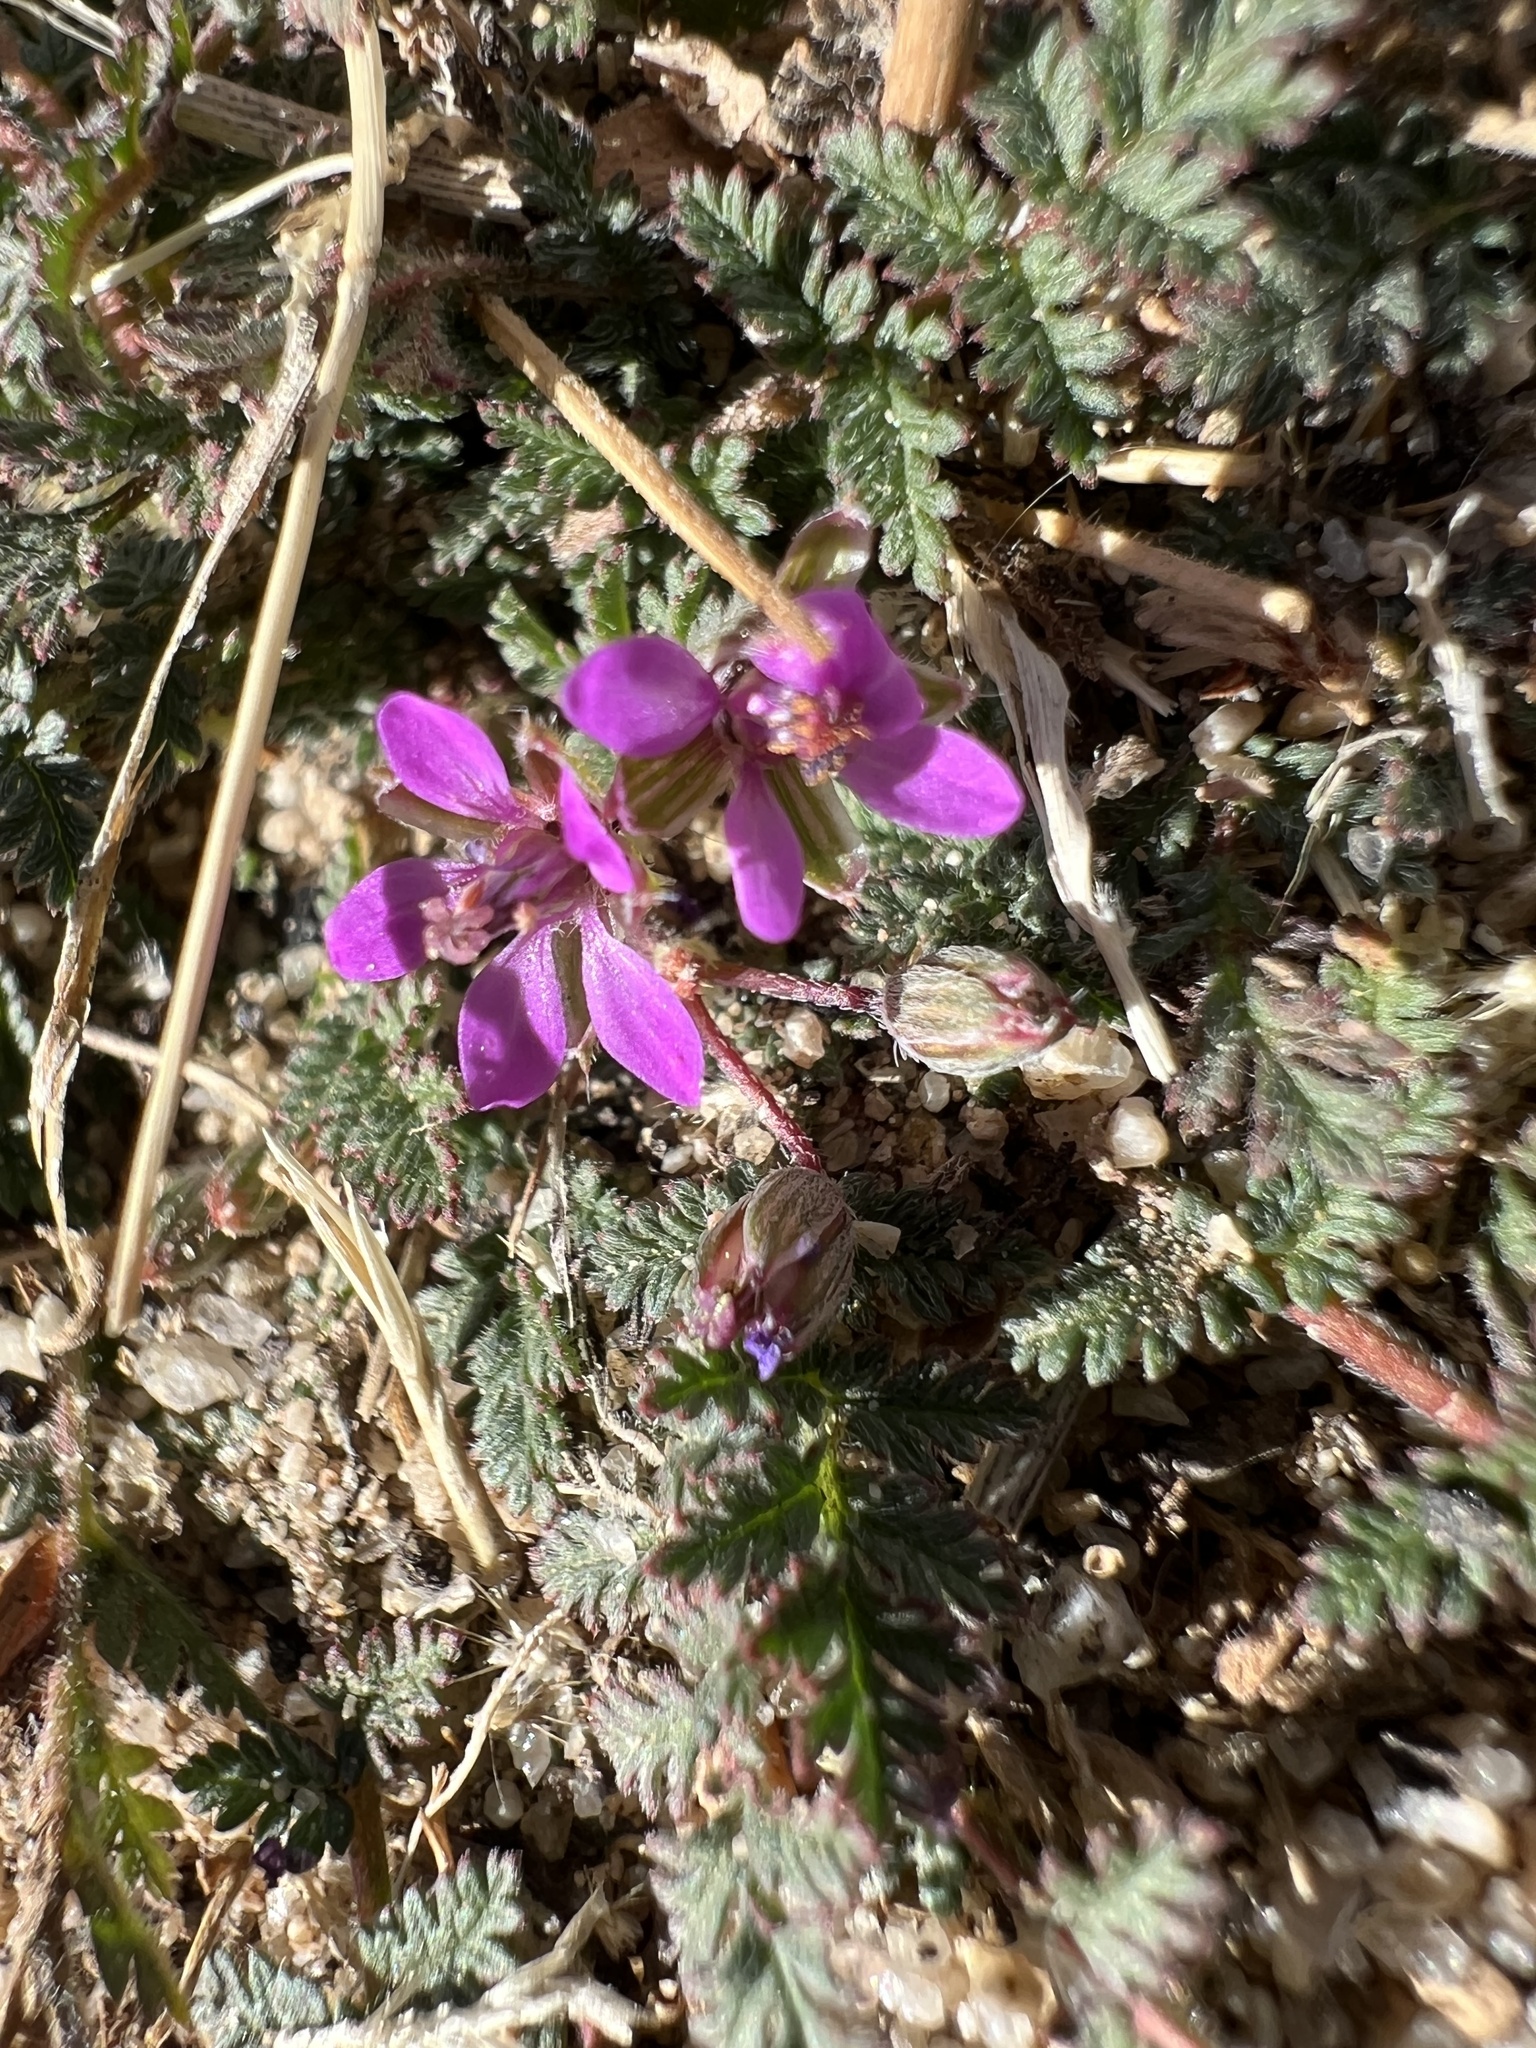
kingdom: Plantae
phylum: Tracheophyta
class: Magnoliopsida
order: Geraniales
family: Geraniaceae
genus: Erodium
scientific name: Erodium cicutarium
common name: Common stork's-bill
